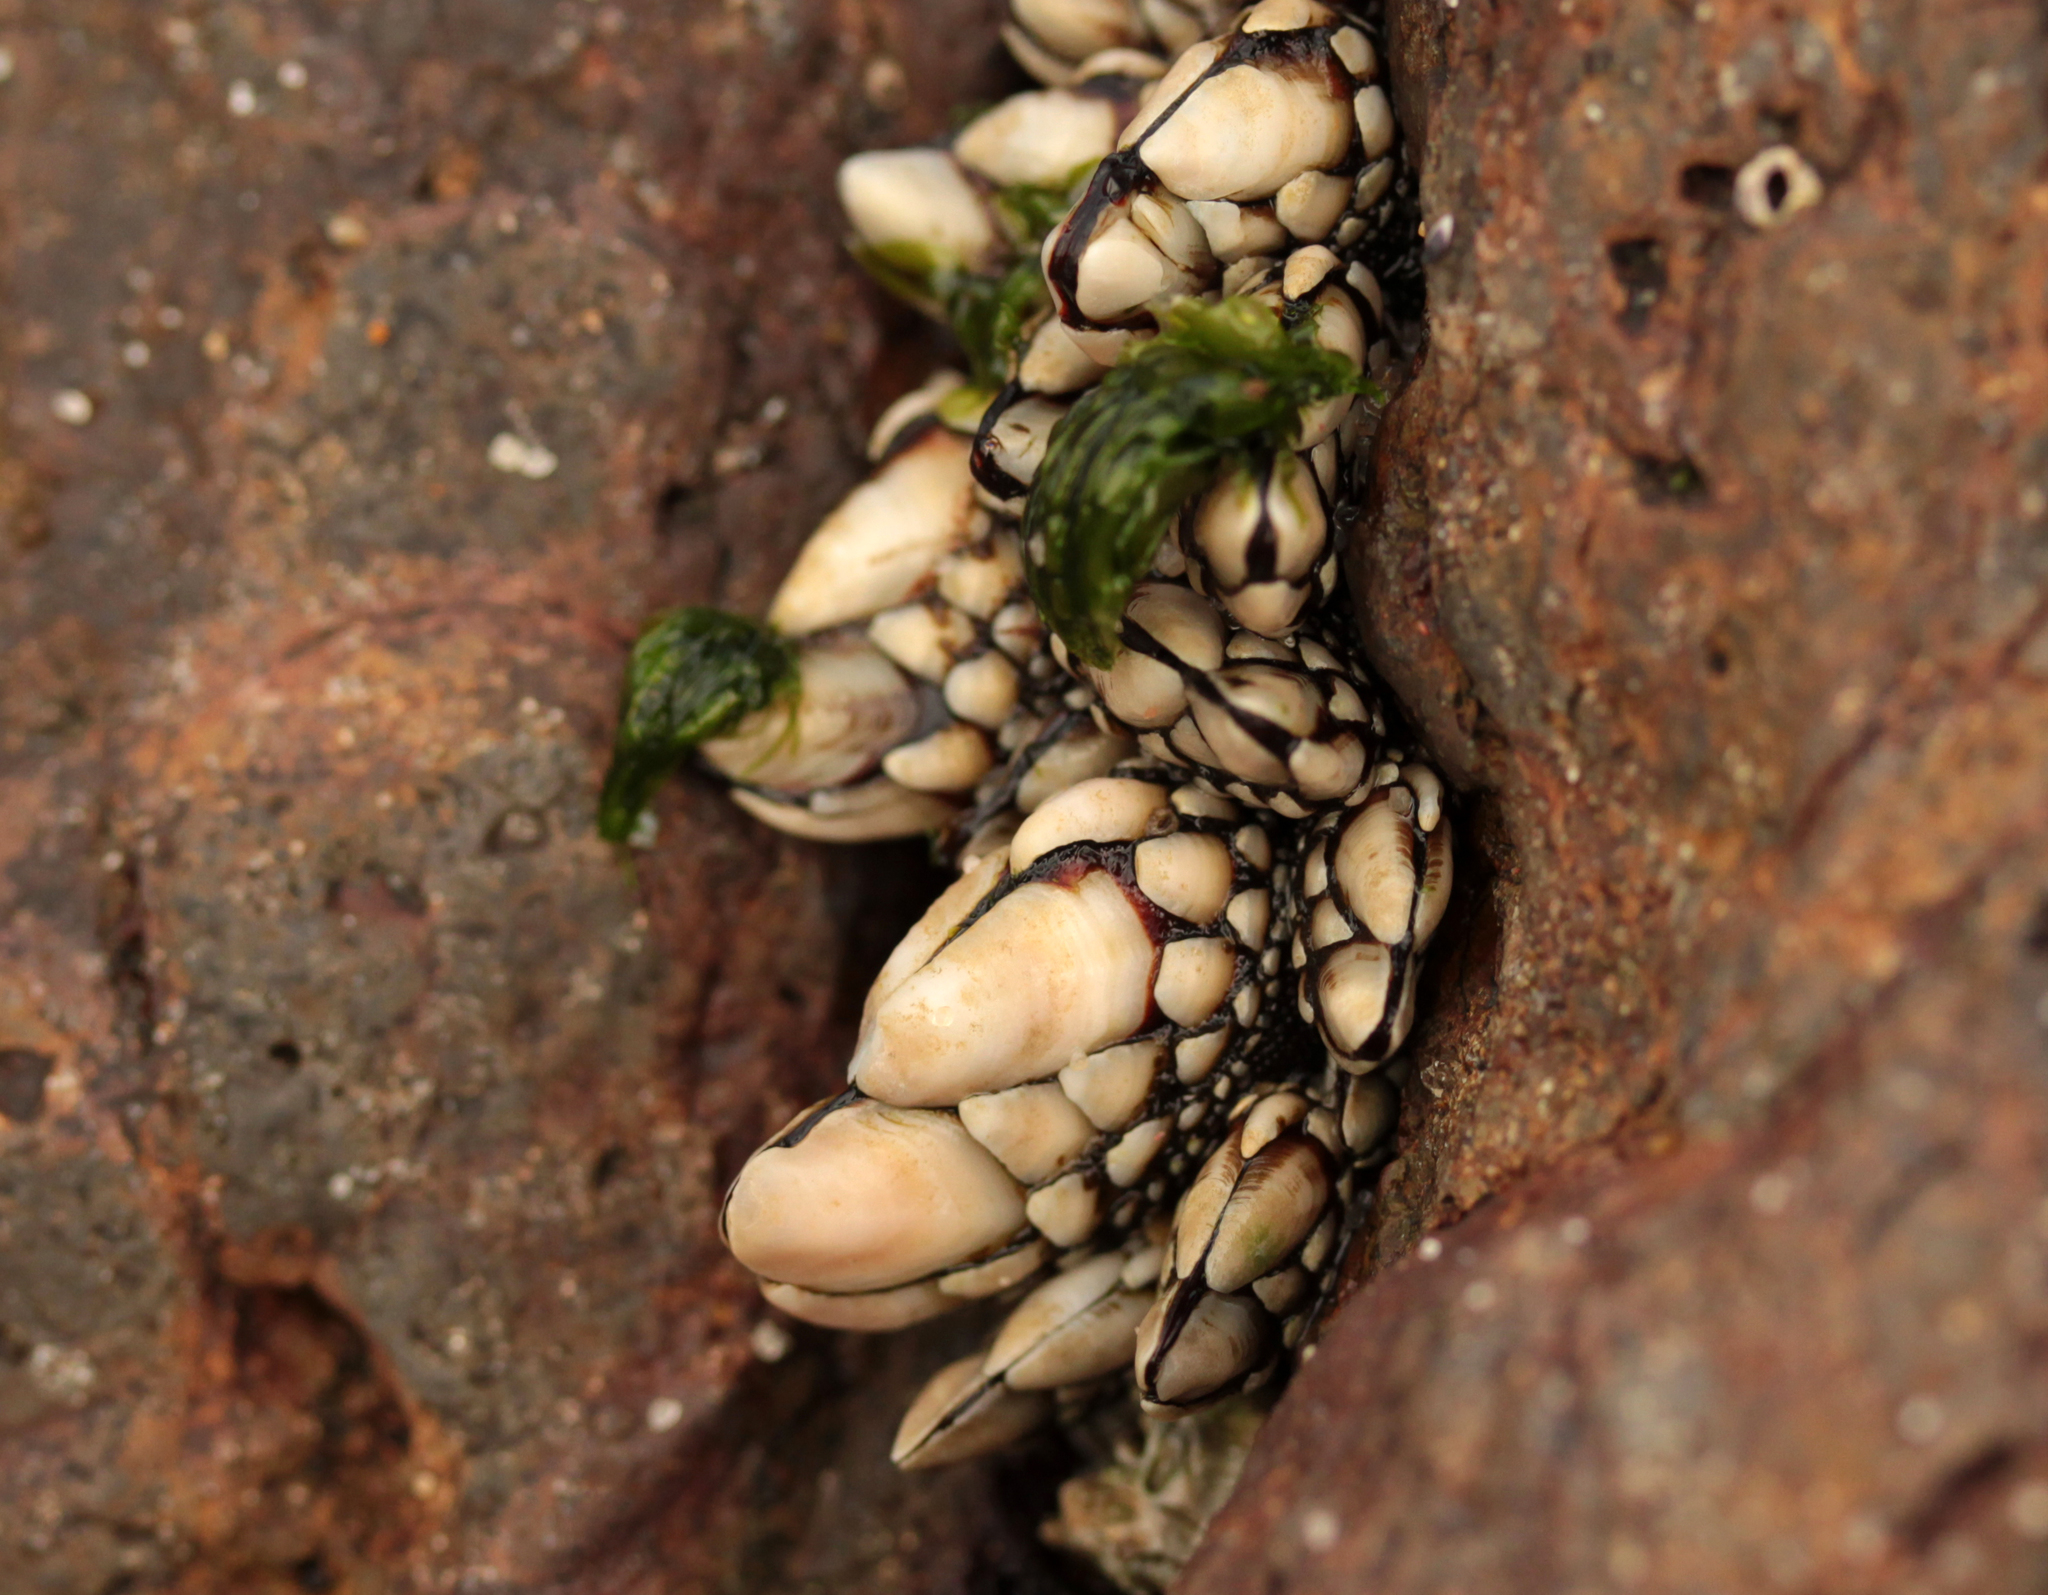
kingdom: Animalia
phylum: Arthropoda
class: Maxillopoda
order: Pedunculata
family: Pollicipedidae
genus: Pollicipes
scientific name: Pollicipes polymerus
